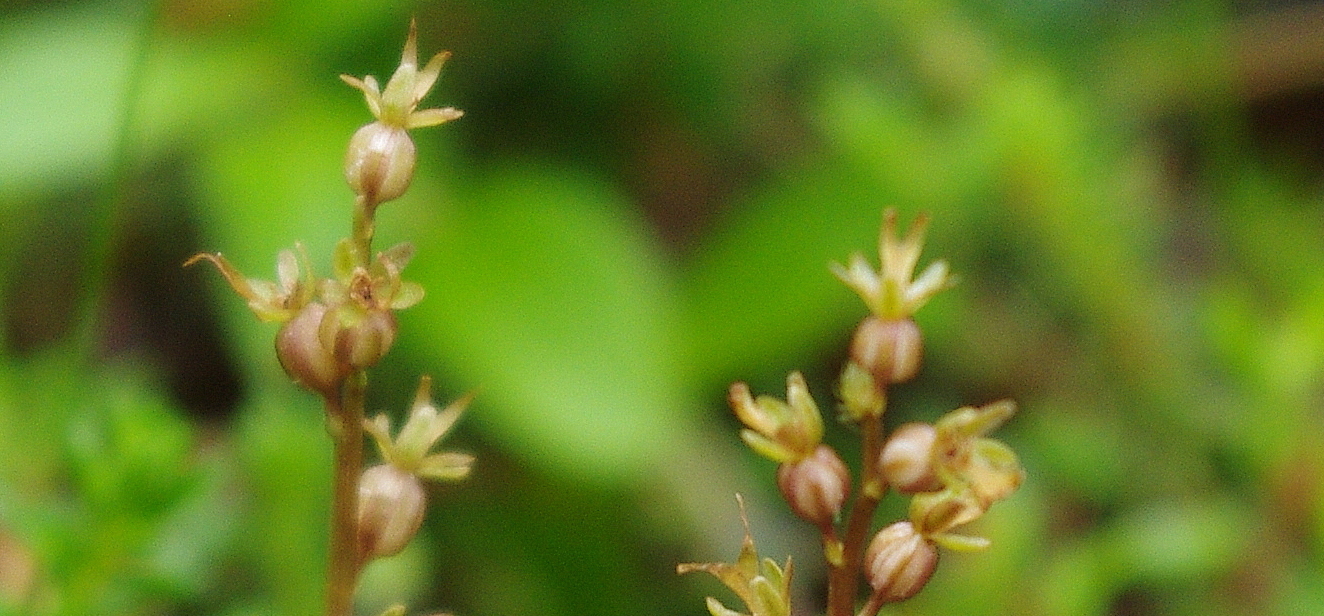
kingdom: Plantae
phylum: Tracheophyta
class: Liliopsida
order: Asparagales
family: Orchidaceae
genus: Neottia
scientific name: Neottia cordata
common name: Lesser twayblade
